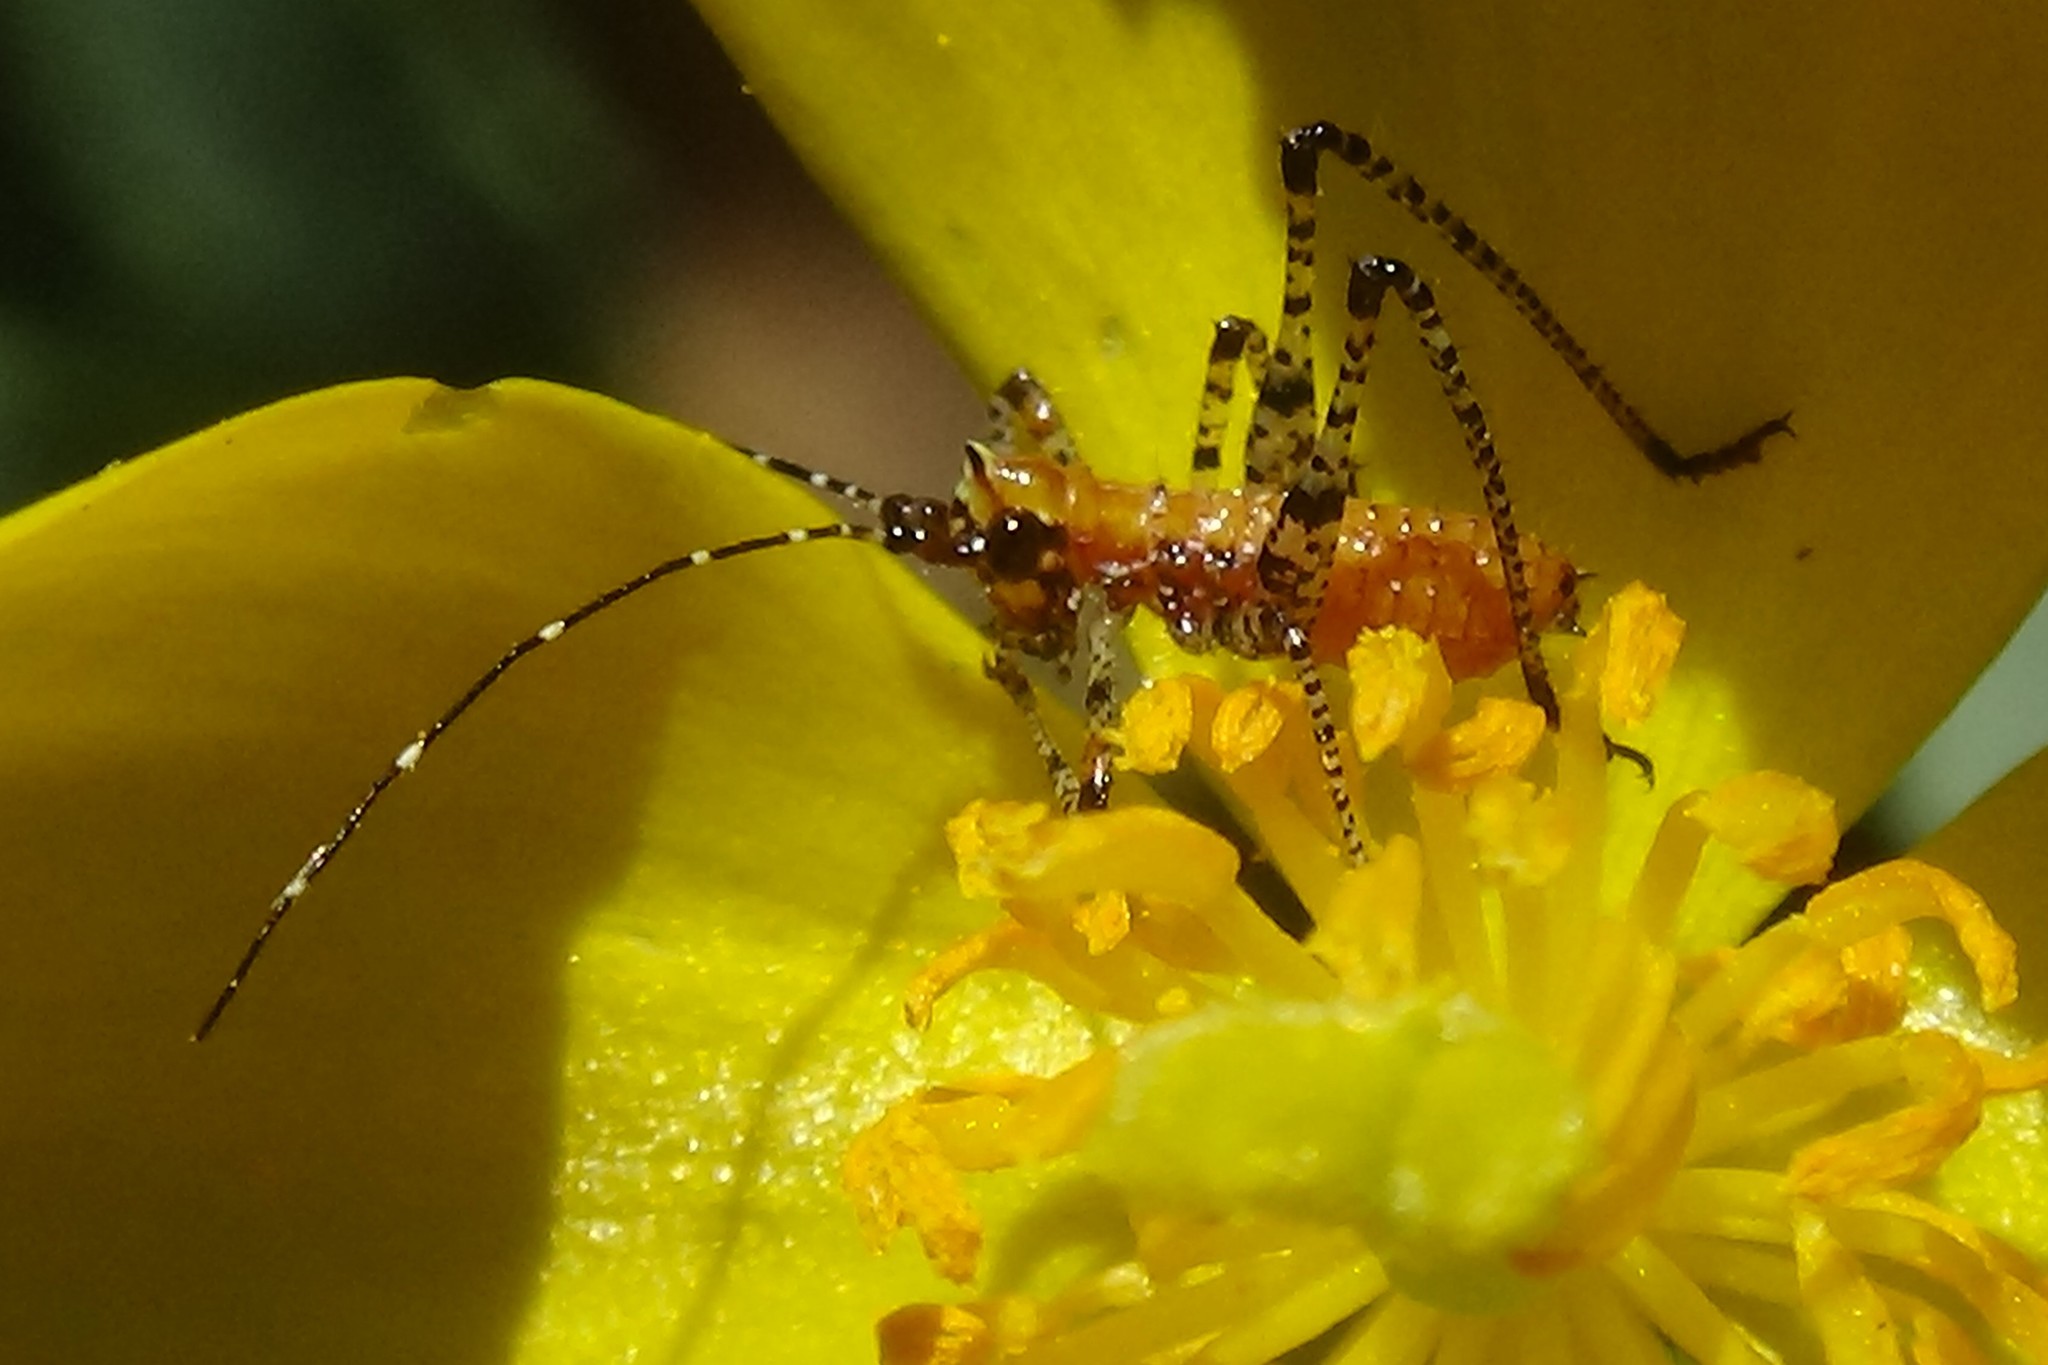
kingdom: Animalia
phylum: Arthropoda
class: Insecta
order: Orthoptera
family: Tettigoniidae
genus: Scudderia
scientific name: Scudderia
